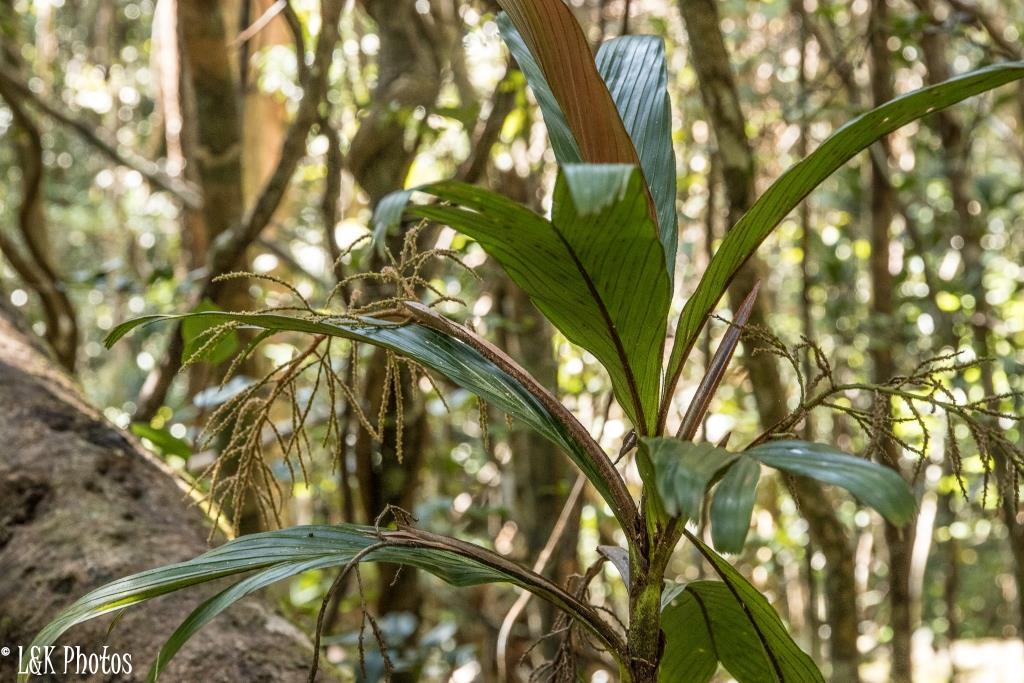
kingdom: Plantae
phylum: Tracheophyta
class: Liliopsida
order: Arecales
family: Arecaceae
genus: Dypsis
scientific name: Dypsis hildebrandtii
